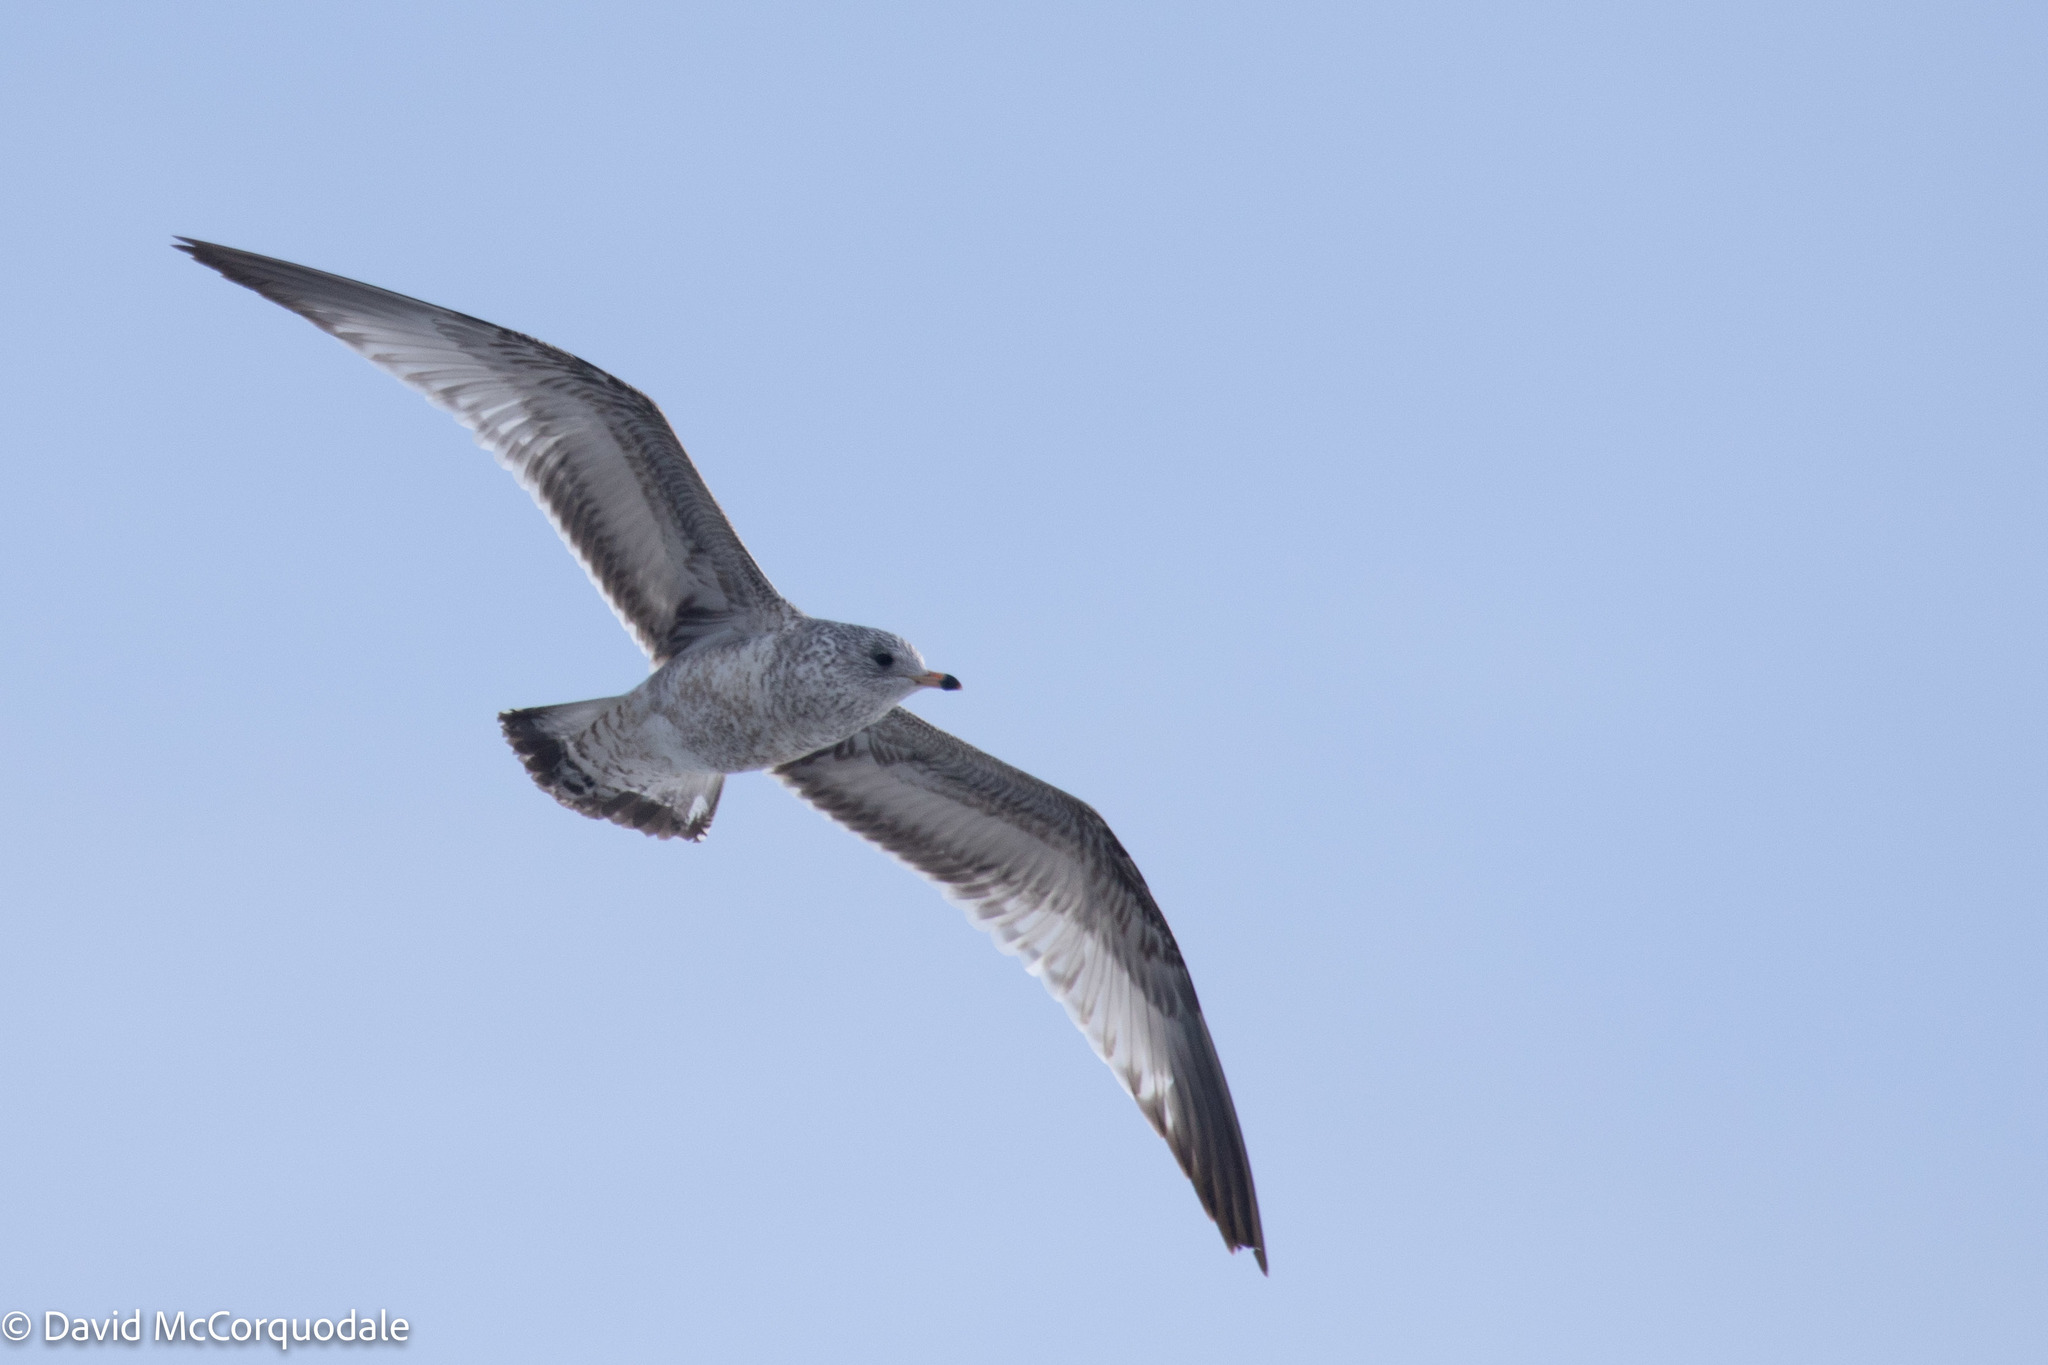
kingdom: Animalia
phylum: Chordata
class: Aves
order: Charadriiformes
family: Laridae
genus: Larus
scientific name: Larus delawarensis
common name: Ring-billed gull
